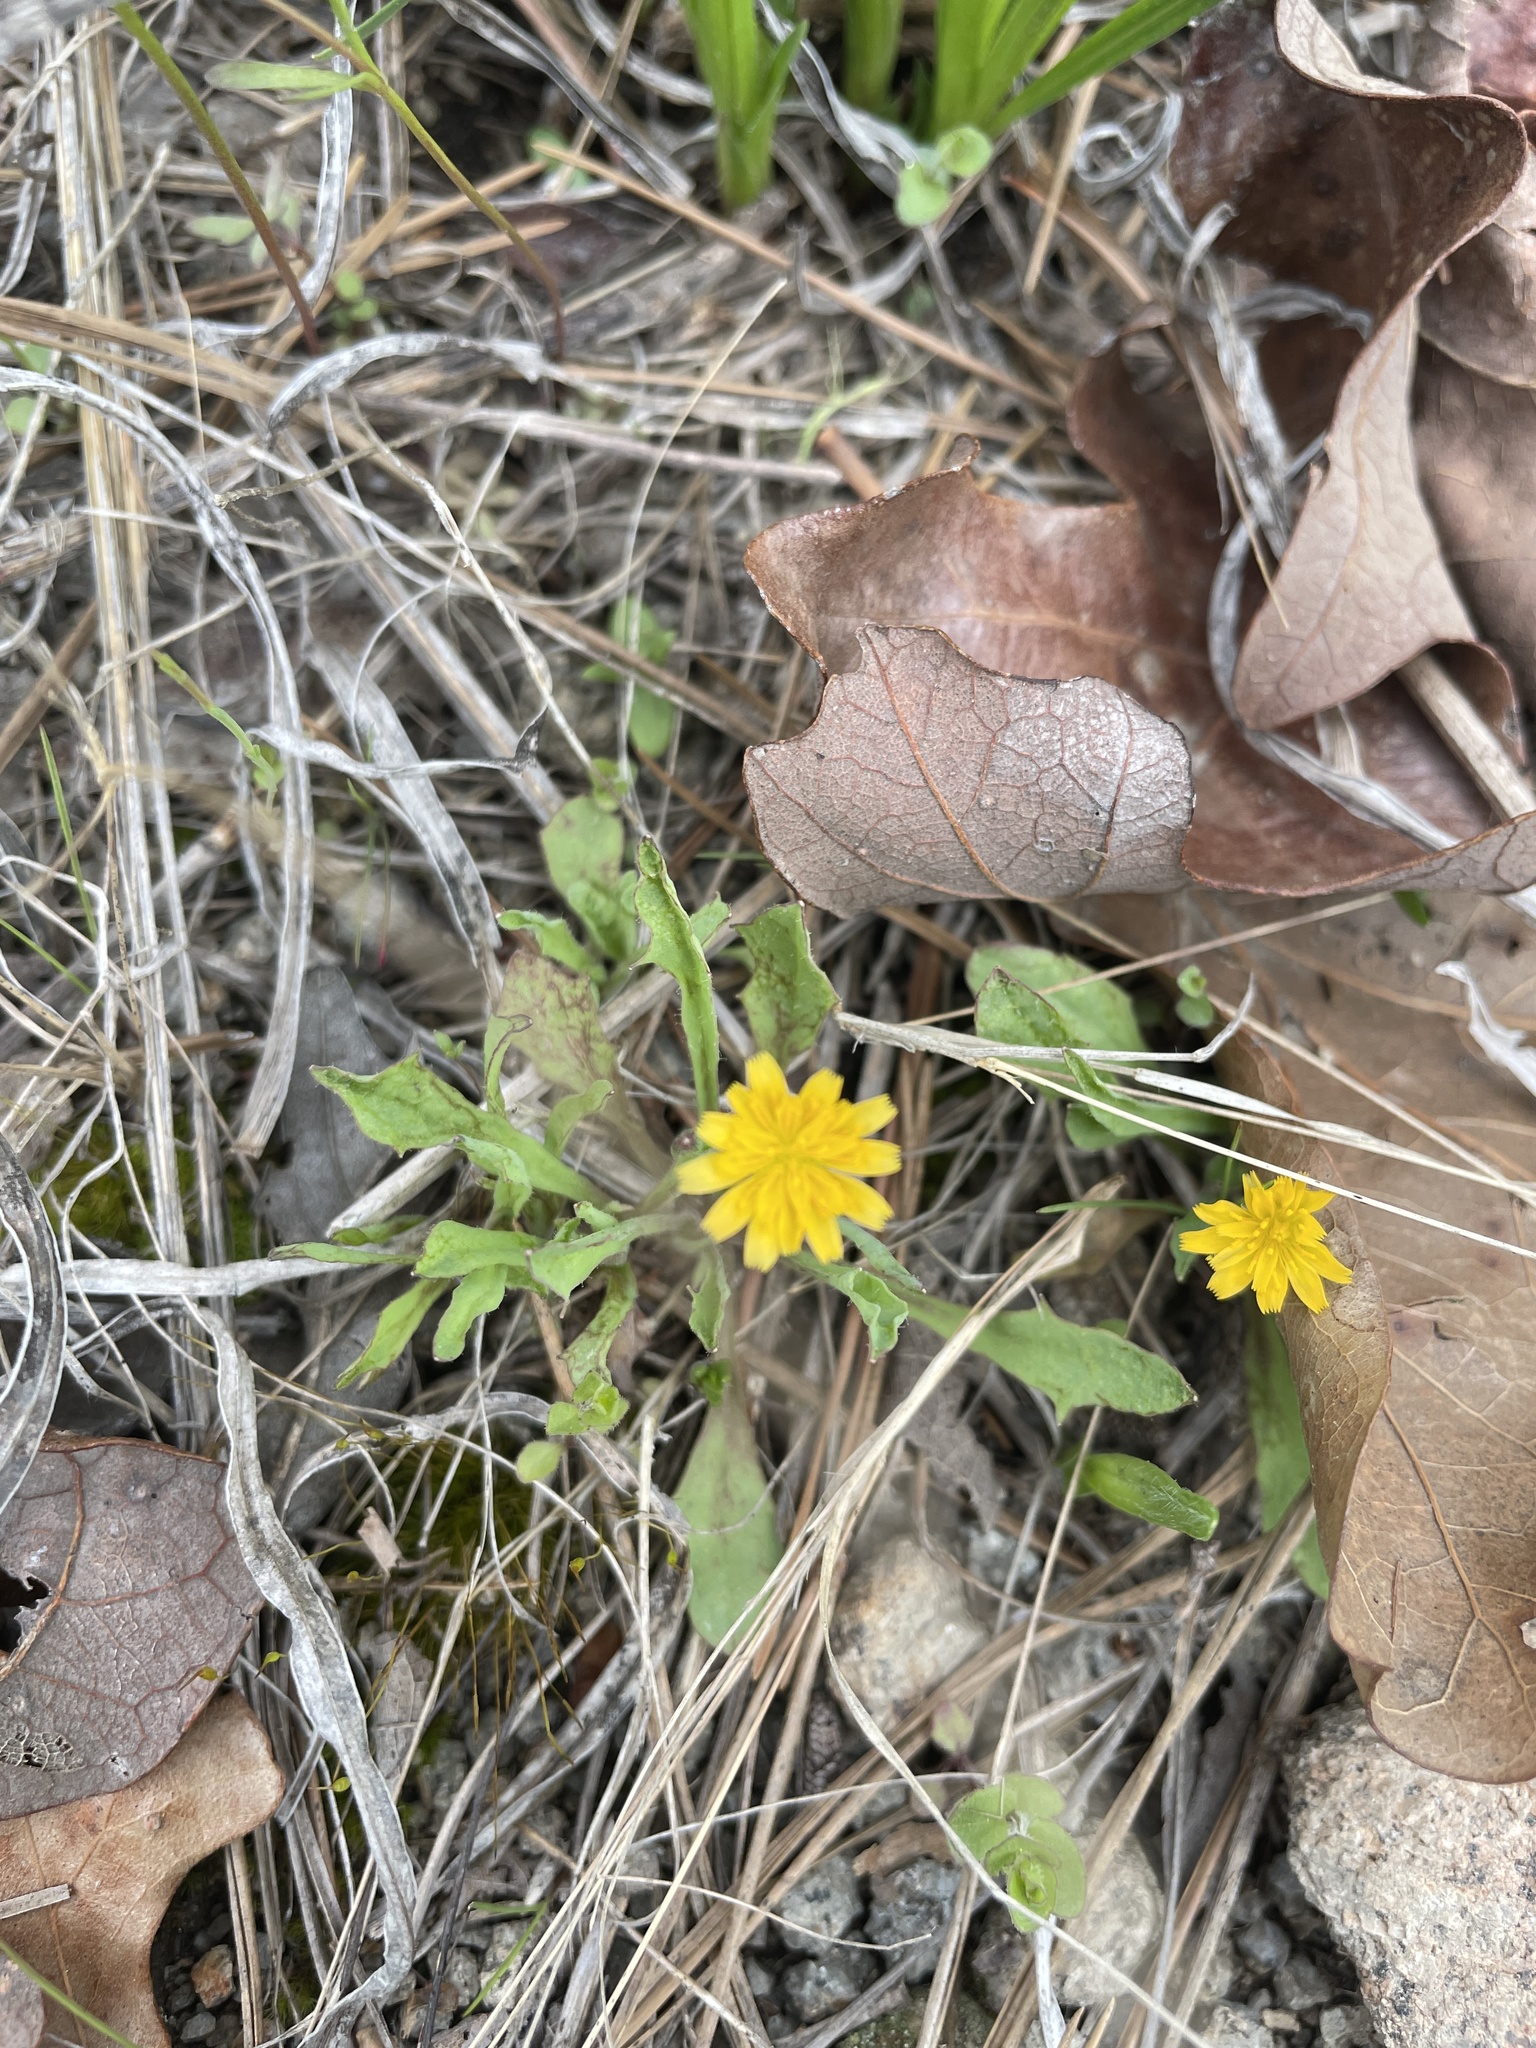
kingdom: Plantae
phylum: Tracheophyta
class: Magnoliopsida
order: Asterales
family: Asteraceae
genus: Krigia
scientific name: Krigia virginica
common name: Virginia dwarf-dandelion
